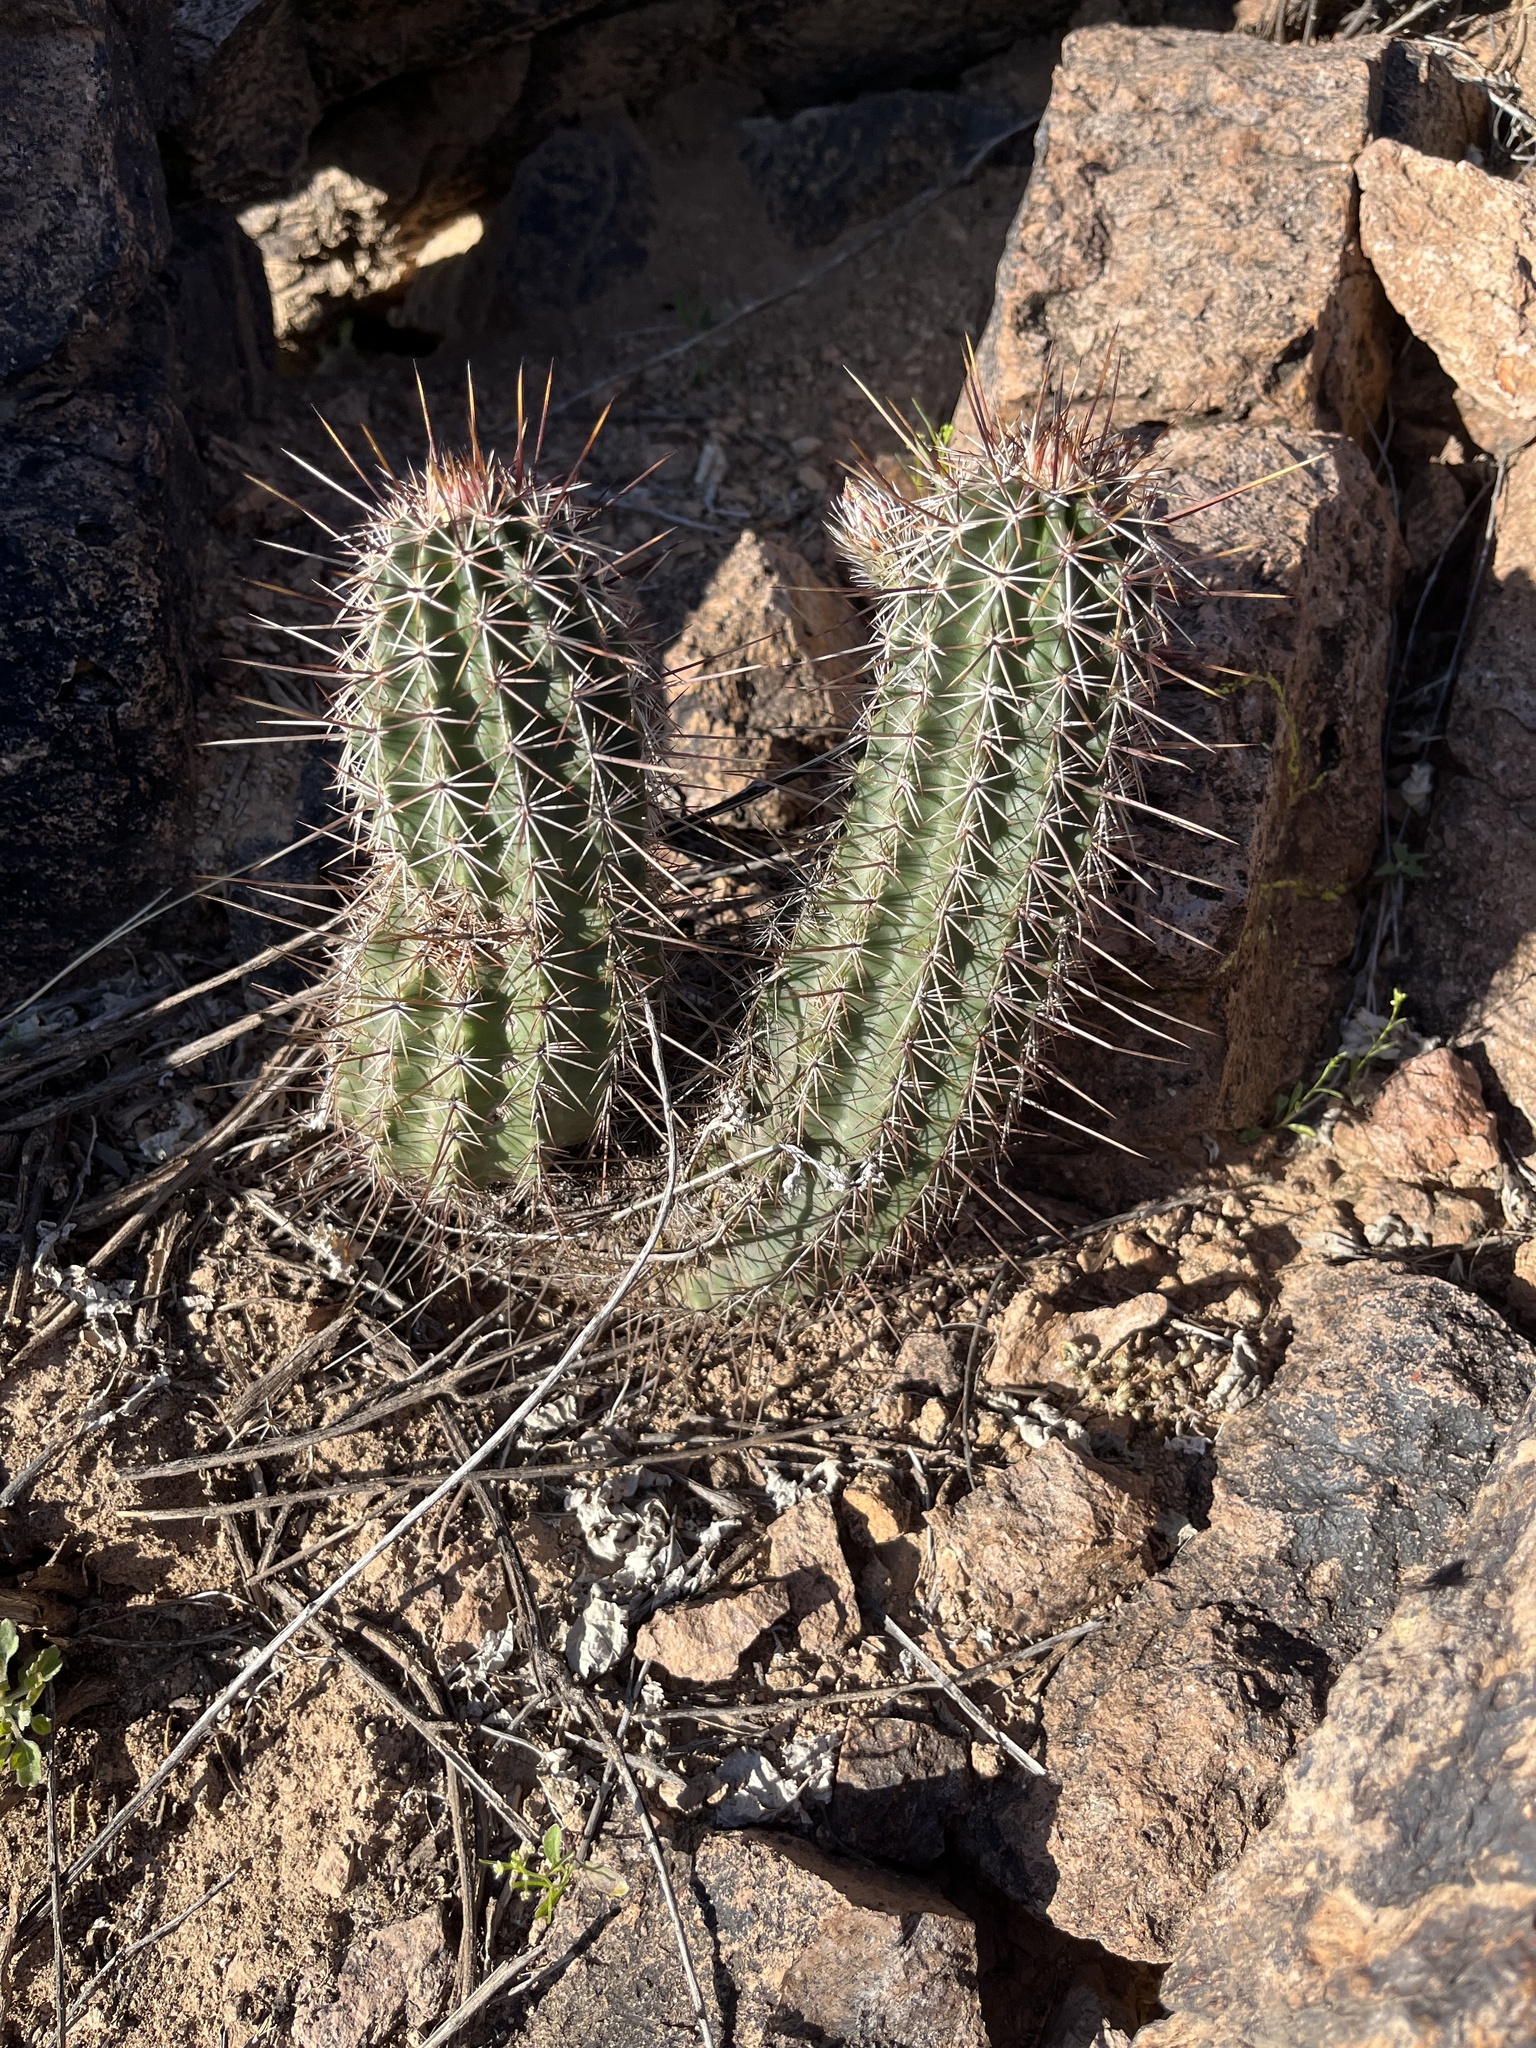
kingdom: Plantae
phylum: Tracheophyta
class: Magnoliopsida
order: Caryophyllales
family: Cactaceae
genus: Echinocereus
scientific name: Echinocereus fasciculatus
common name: Bundle hedgehog
